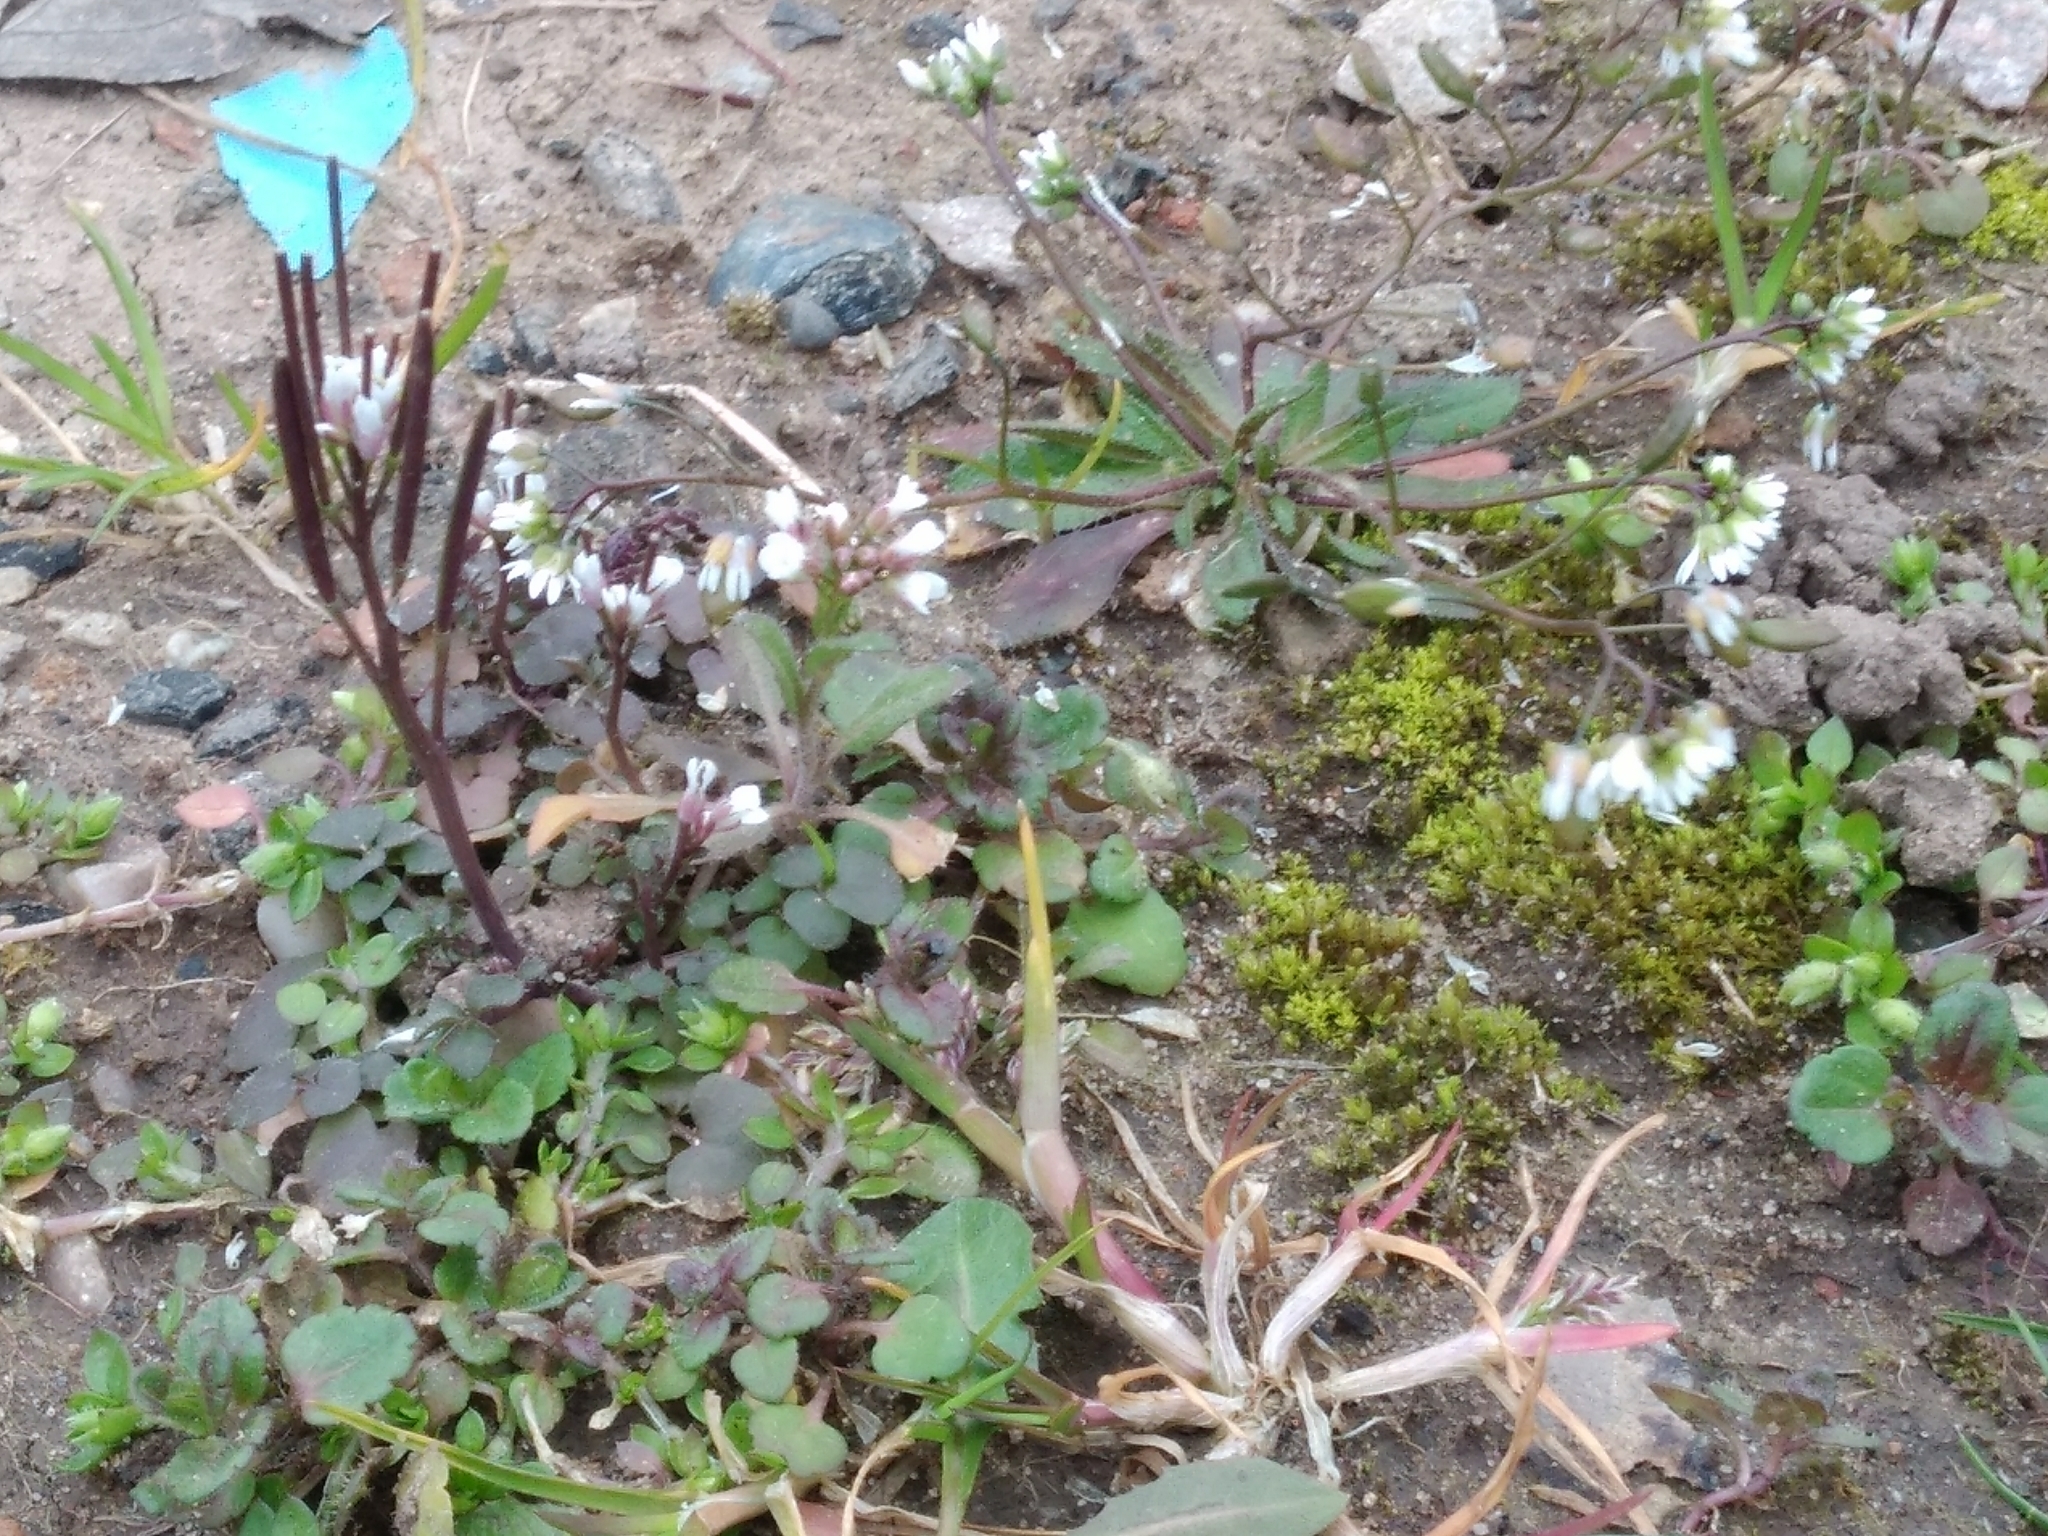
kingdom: Plantae
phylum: Tracheophyta
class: Magnoliopsida
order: Brassicales
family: Brassicaceae
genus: Cardamine
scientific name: Cardamine hirsuta
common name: Hairy bittercress
